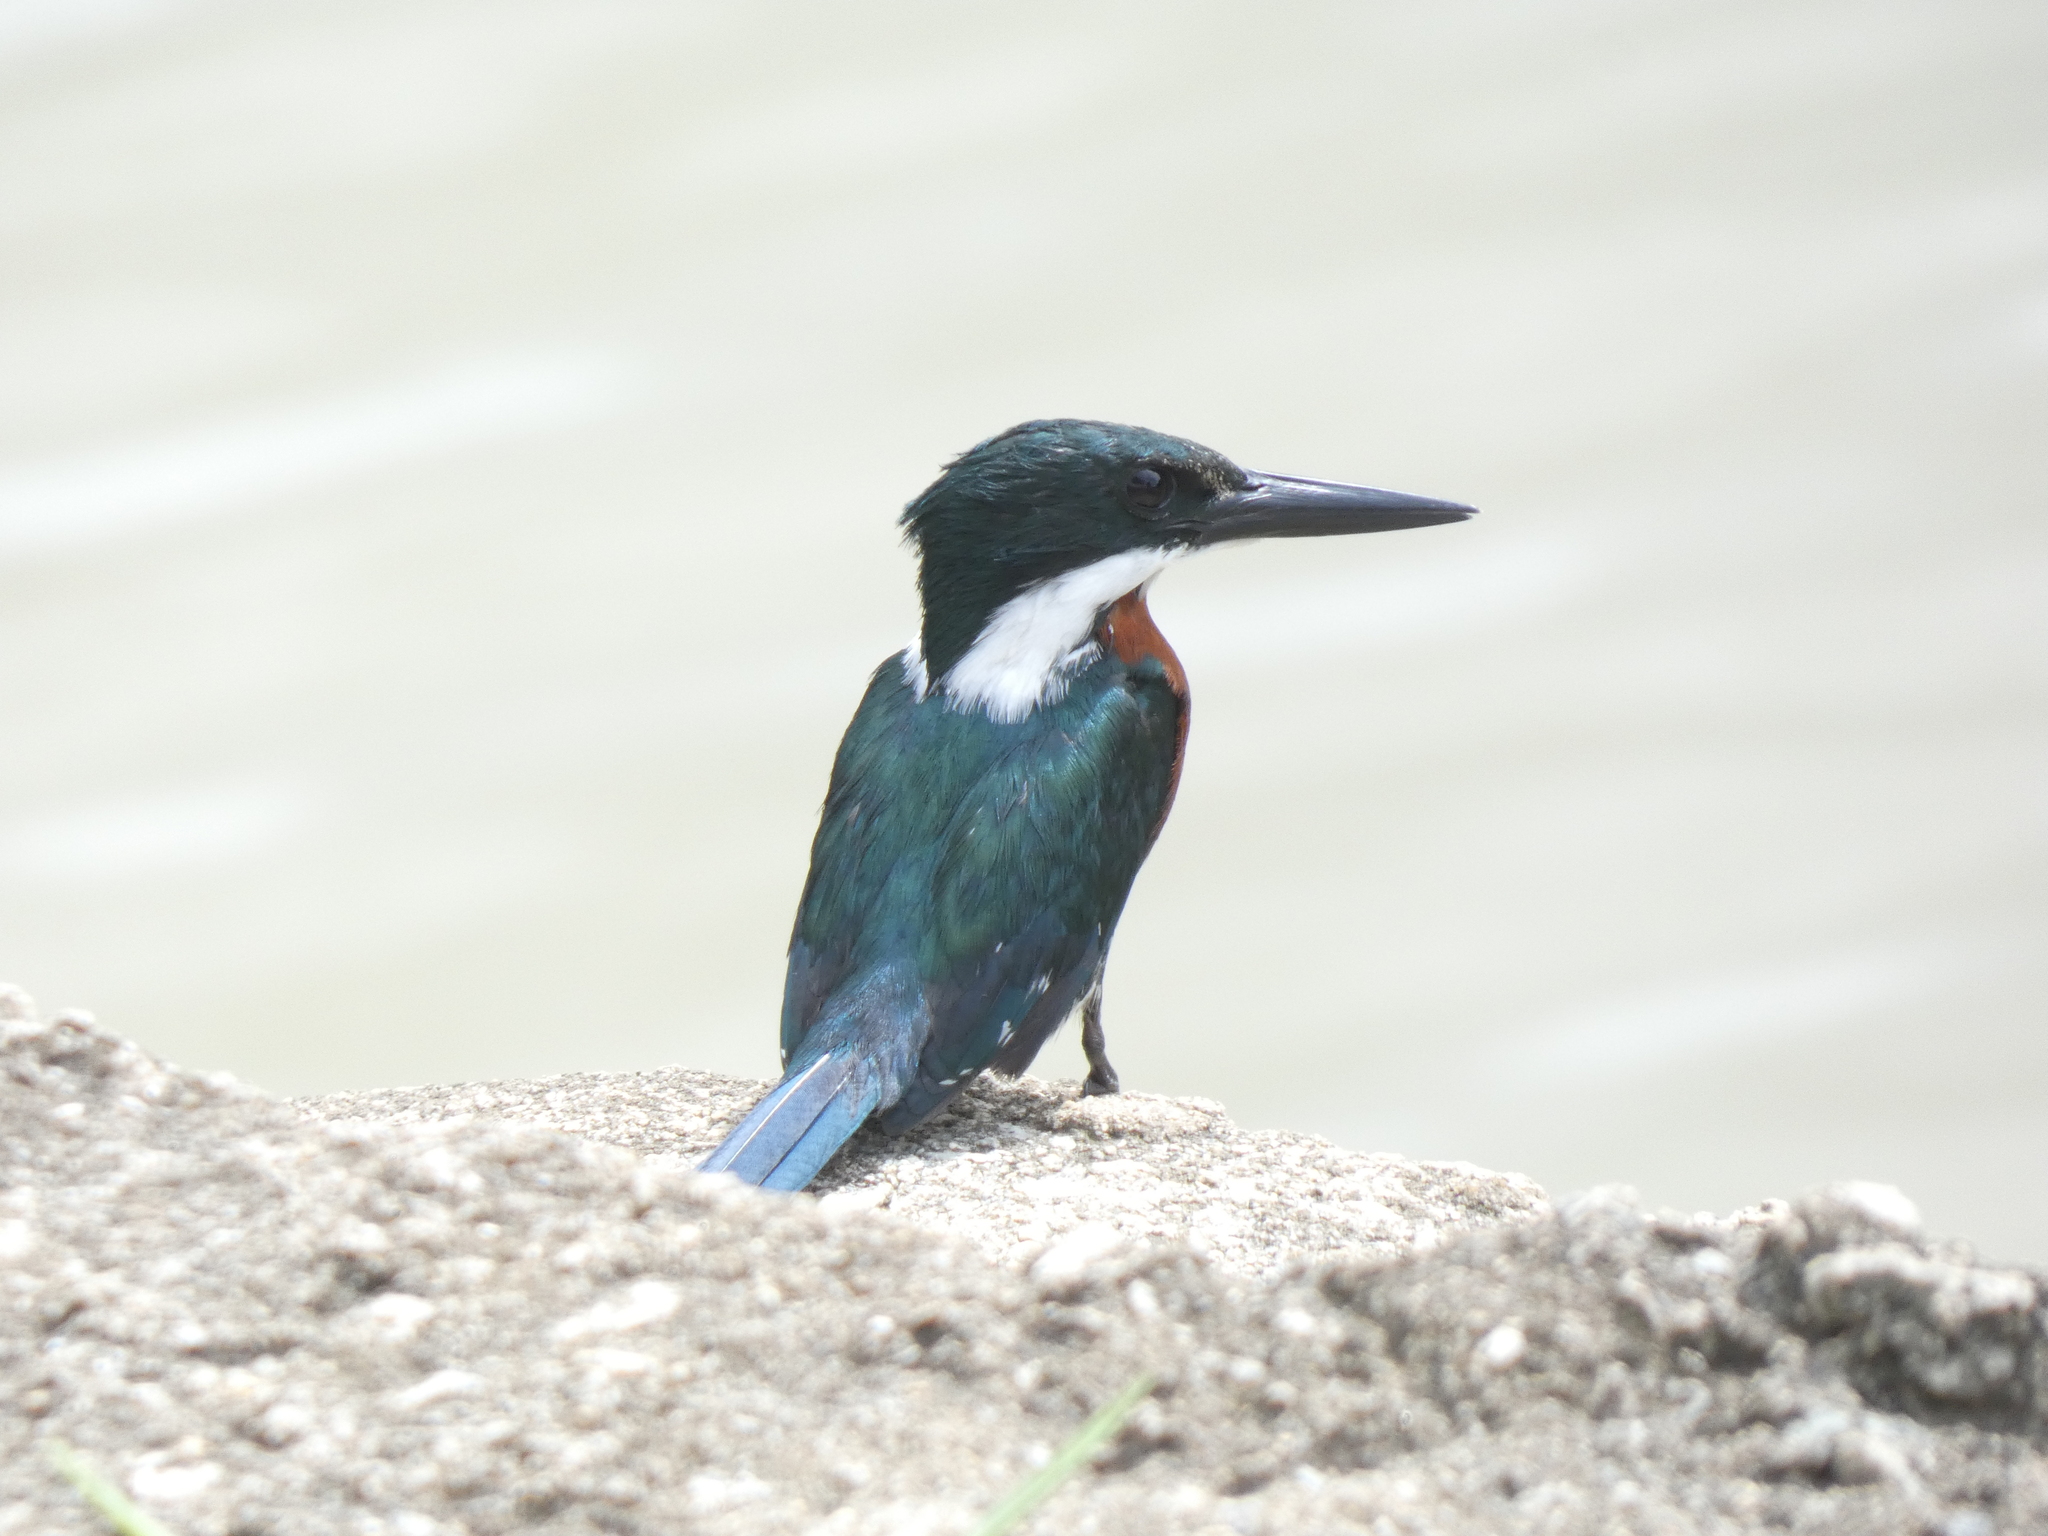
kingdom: Animalia
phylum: Chordata
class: Aves
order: Coraciiformes
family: Alcedinidae
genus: Chloroceryle
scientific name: Chloroceryle americana
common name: Green kingfisher
